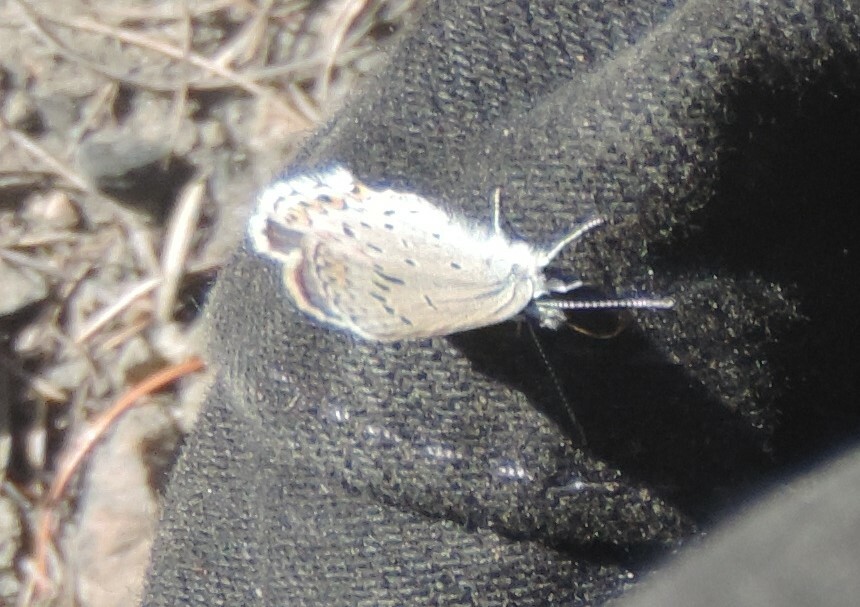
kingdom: Animalia
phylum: Arthropoda
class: Insecta
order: Lepidoptera
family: Lycaenidae
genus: Lycaeides
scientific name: Lycaeides idas
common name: Northern blue
